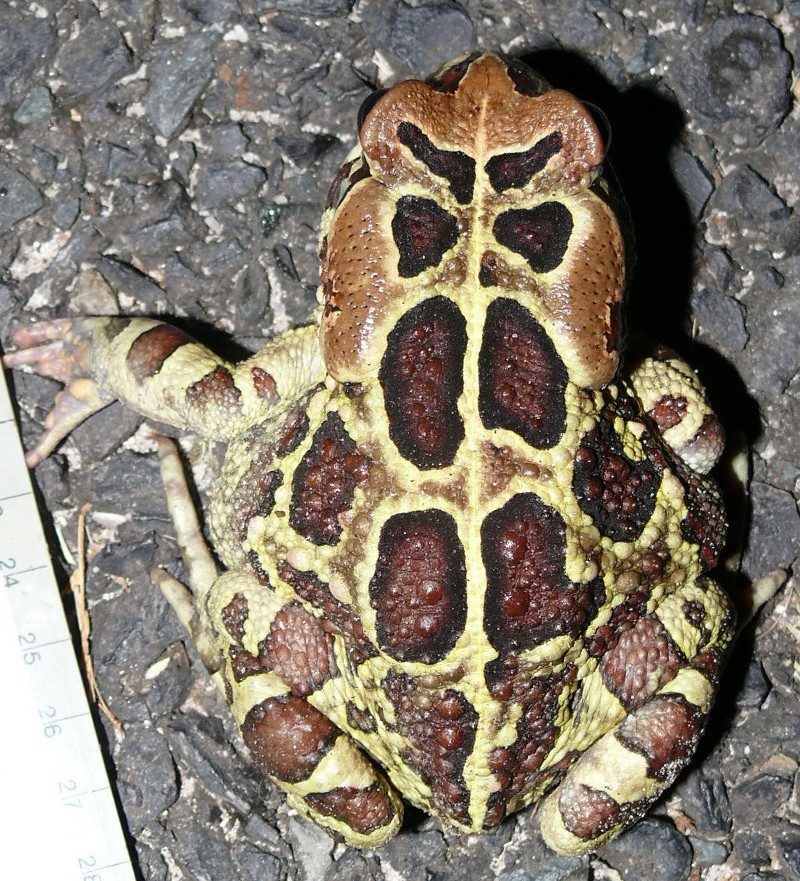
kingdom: Animalia
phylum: Chordata
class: Amphibia
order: Anura
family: Bufonidae
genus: Sclerophrys
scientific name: Sclerophrys pantherina
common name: Panther toad
